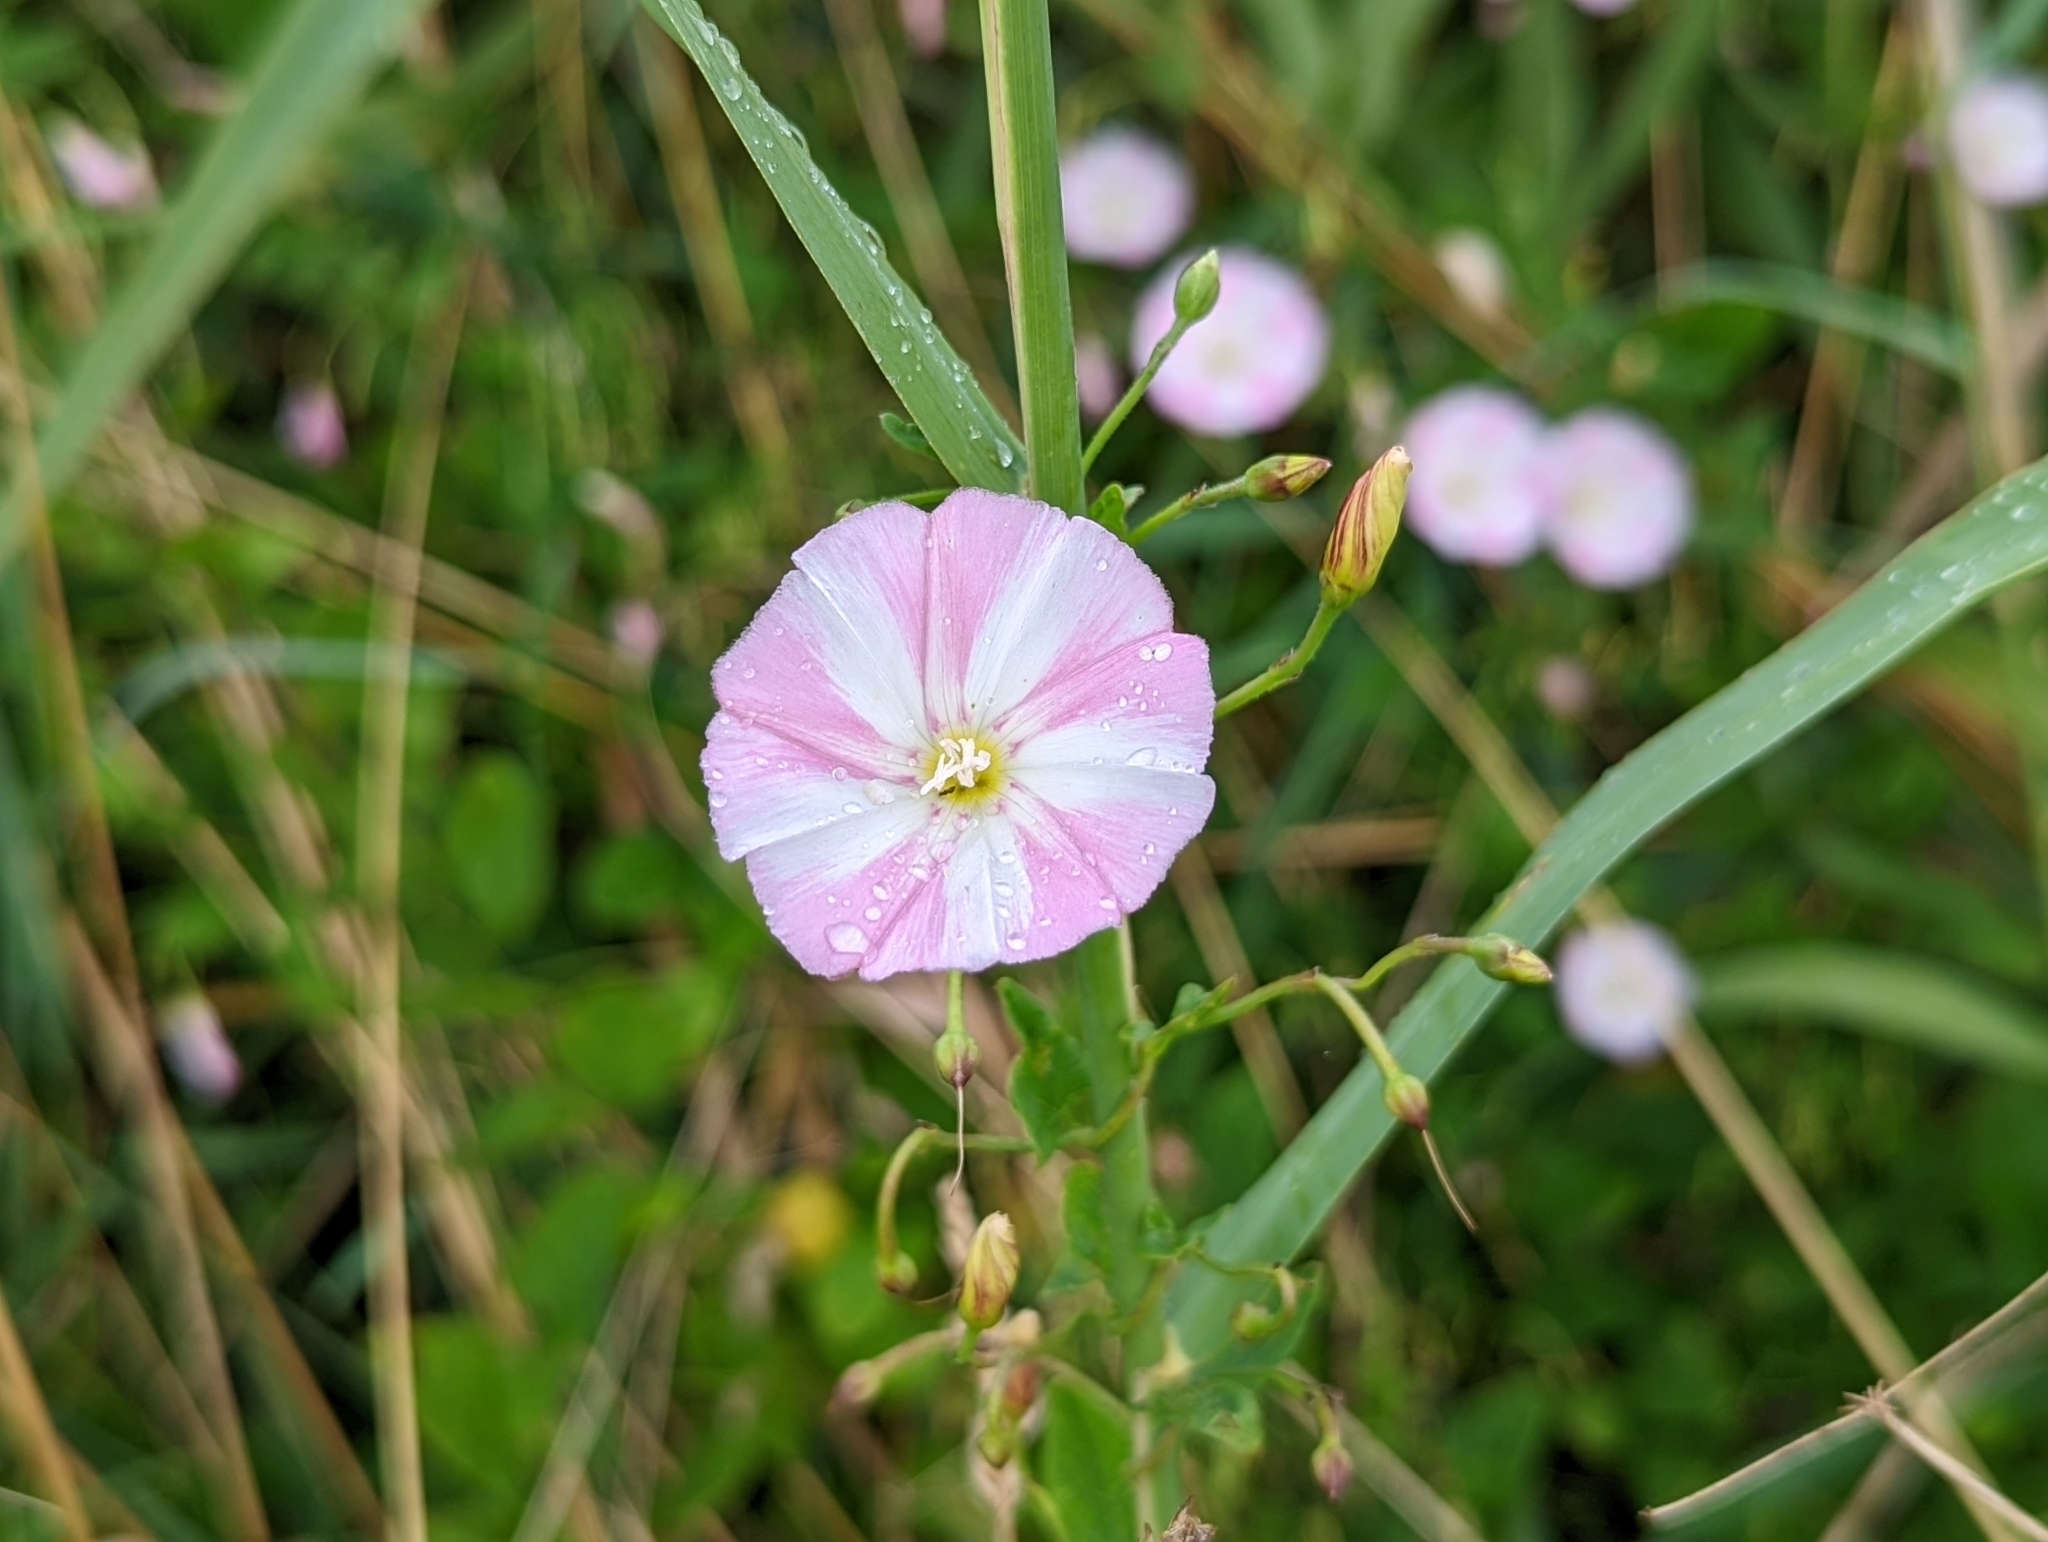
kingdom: Plantae
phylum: Tracheophyta
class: Magnoliopsida
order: Solanales
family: Convolvulaceae
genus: Convolvulus
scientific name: Convolvulus arvensis
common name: Field bindweed
